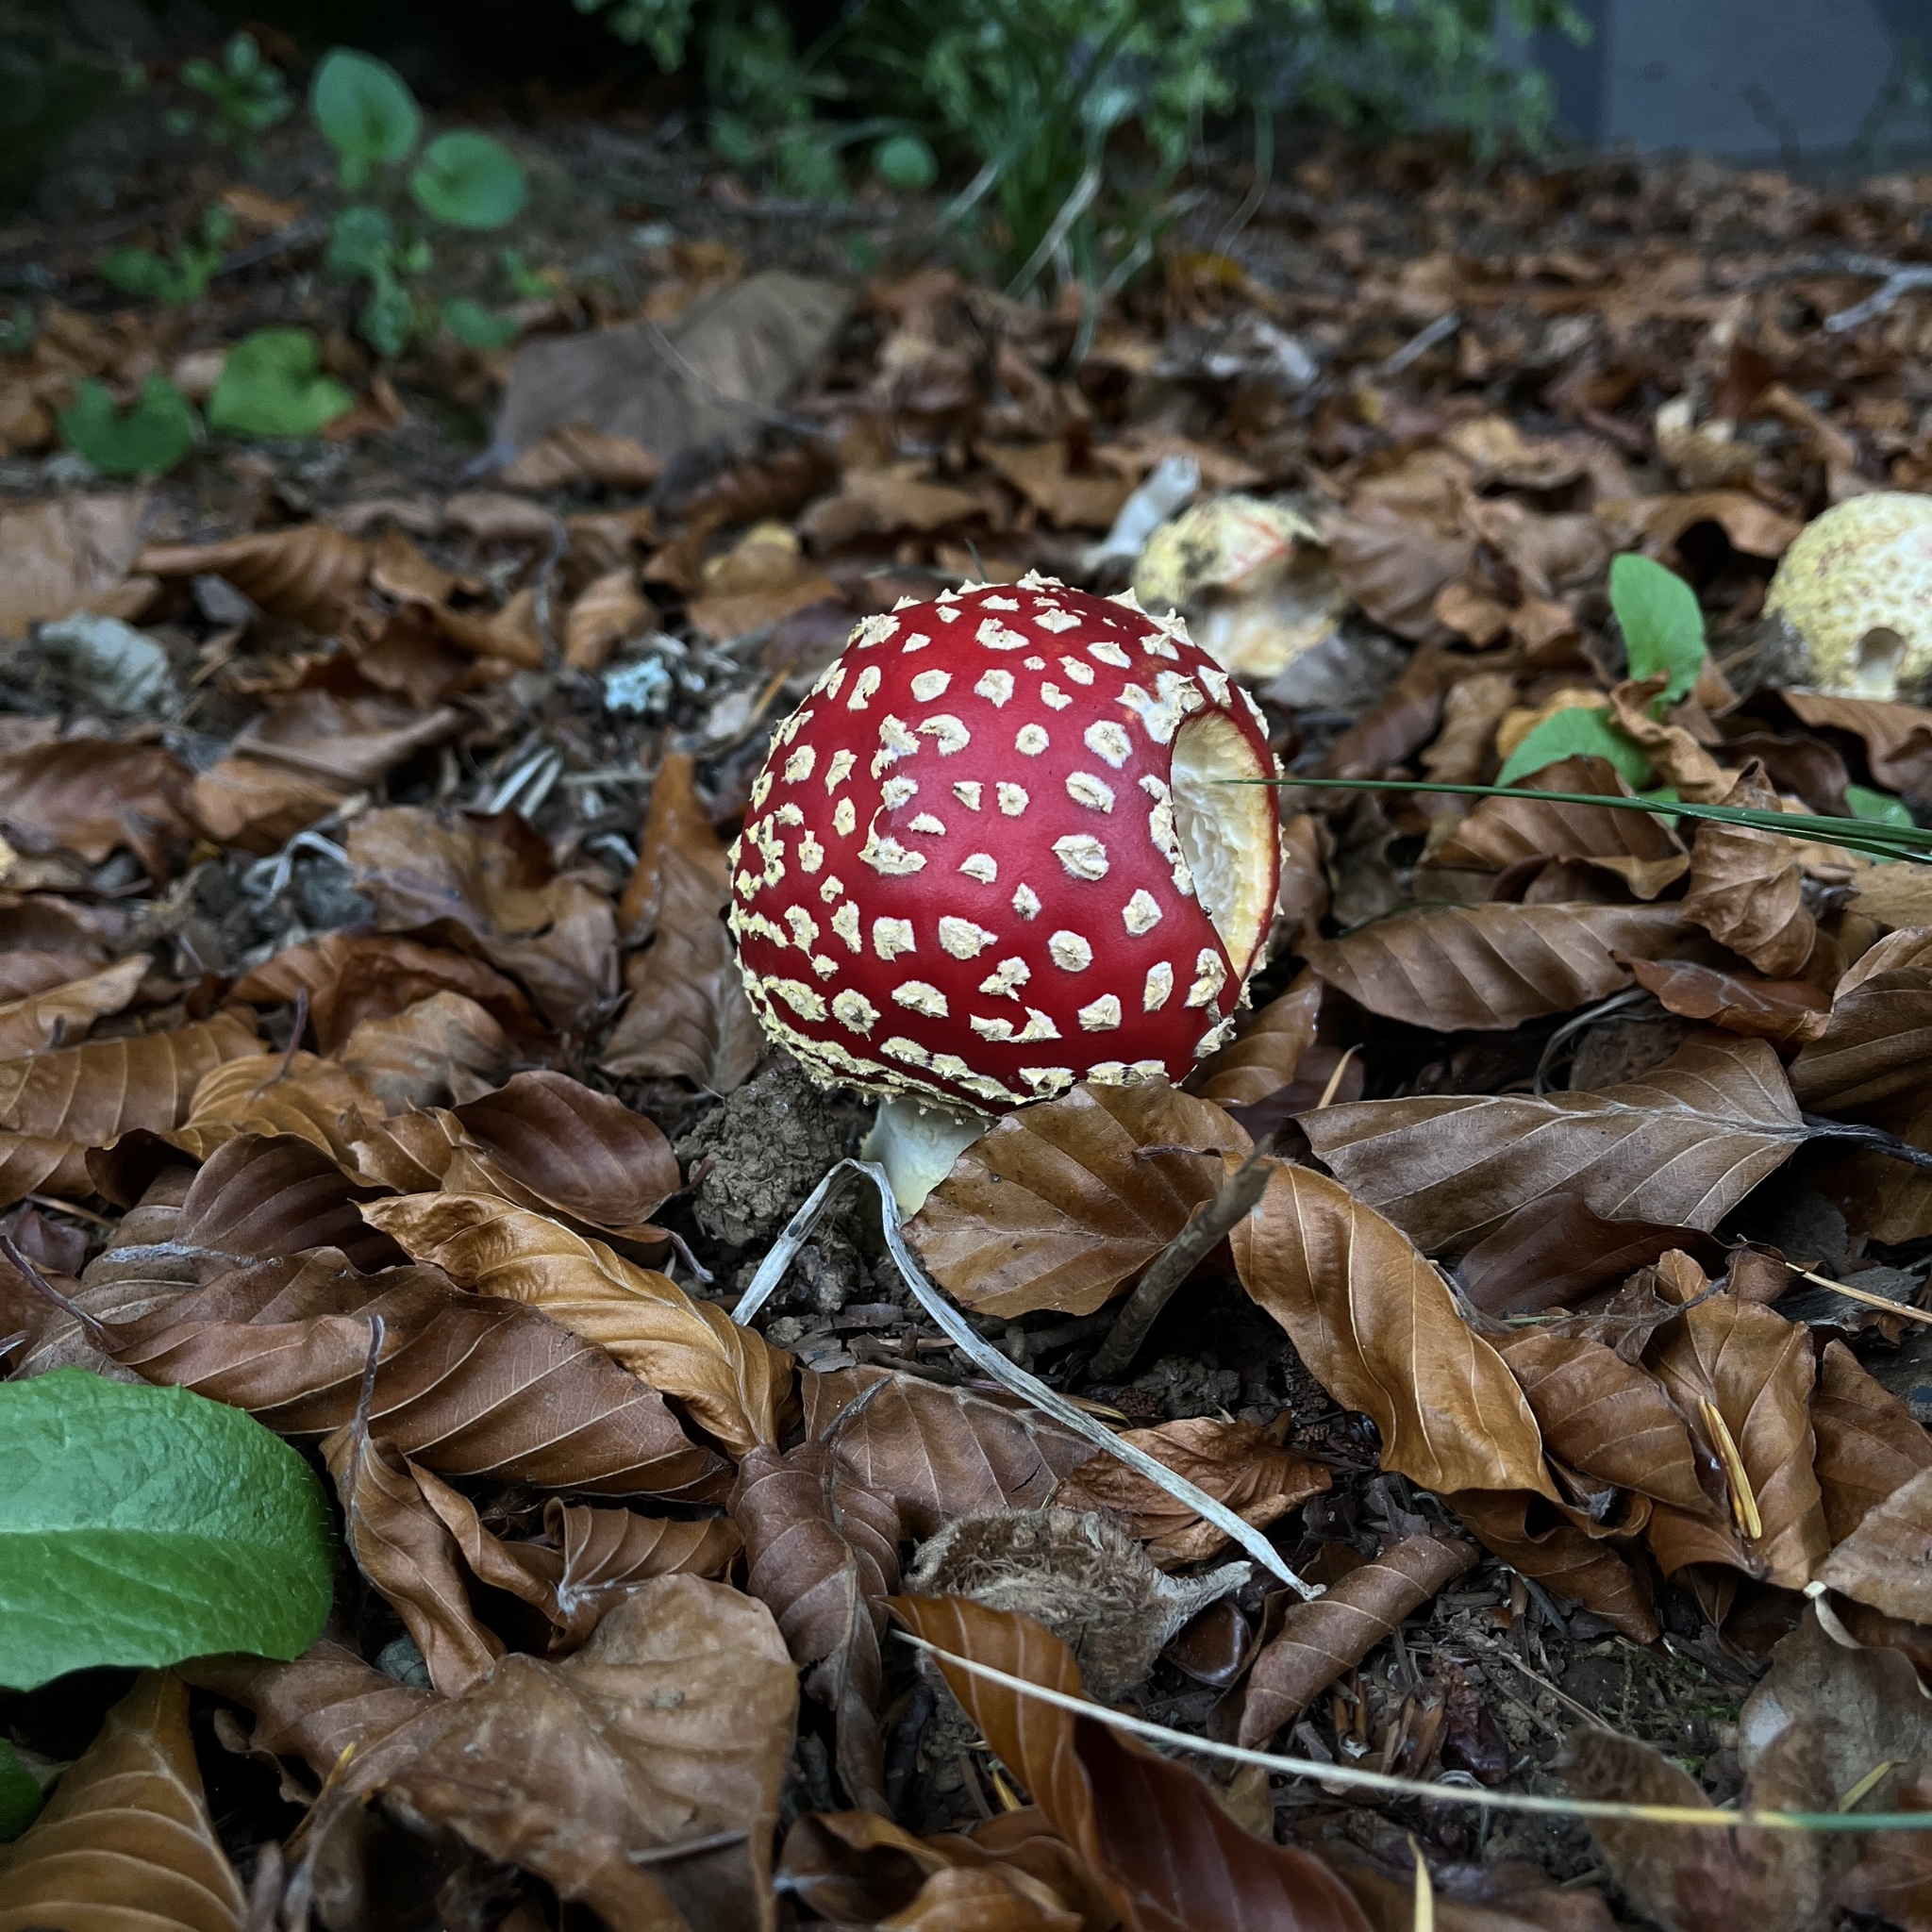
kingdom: Fungi
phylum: Basidiomycota
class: Agaricomycetes
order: Agaricales
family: Amanitaceae
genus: Amanita
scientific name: Amanita muscaria
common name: Fly agaric
